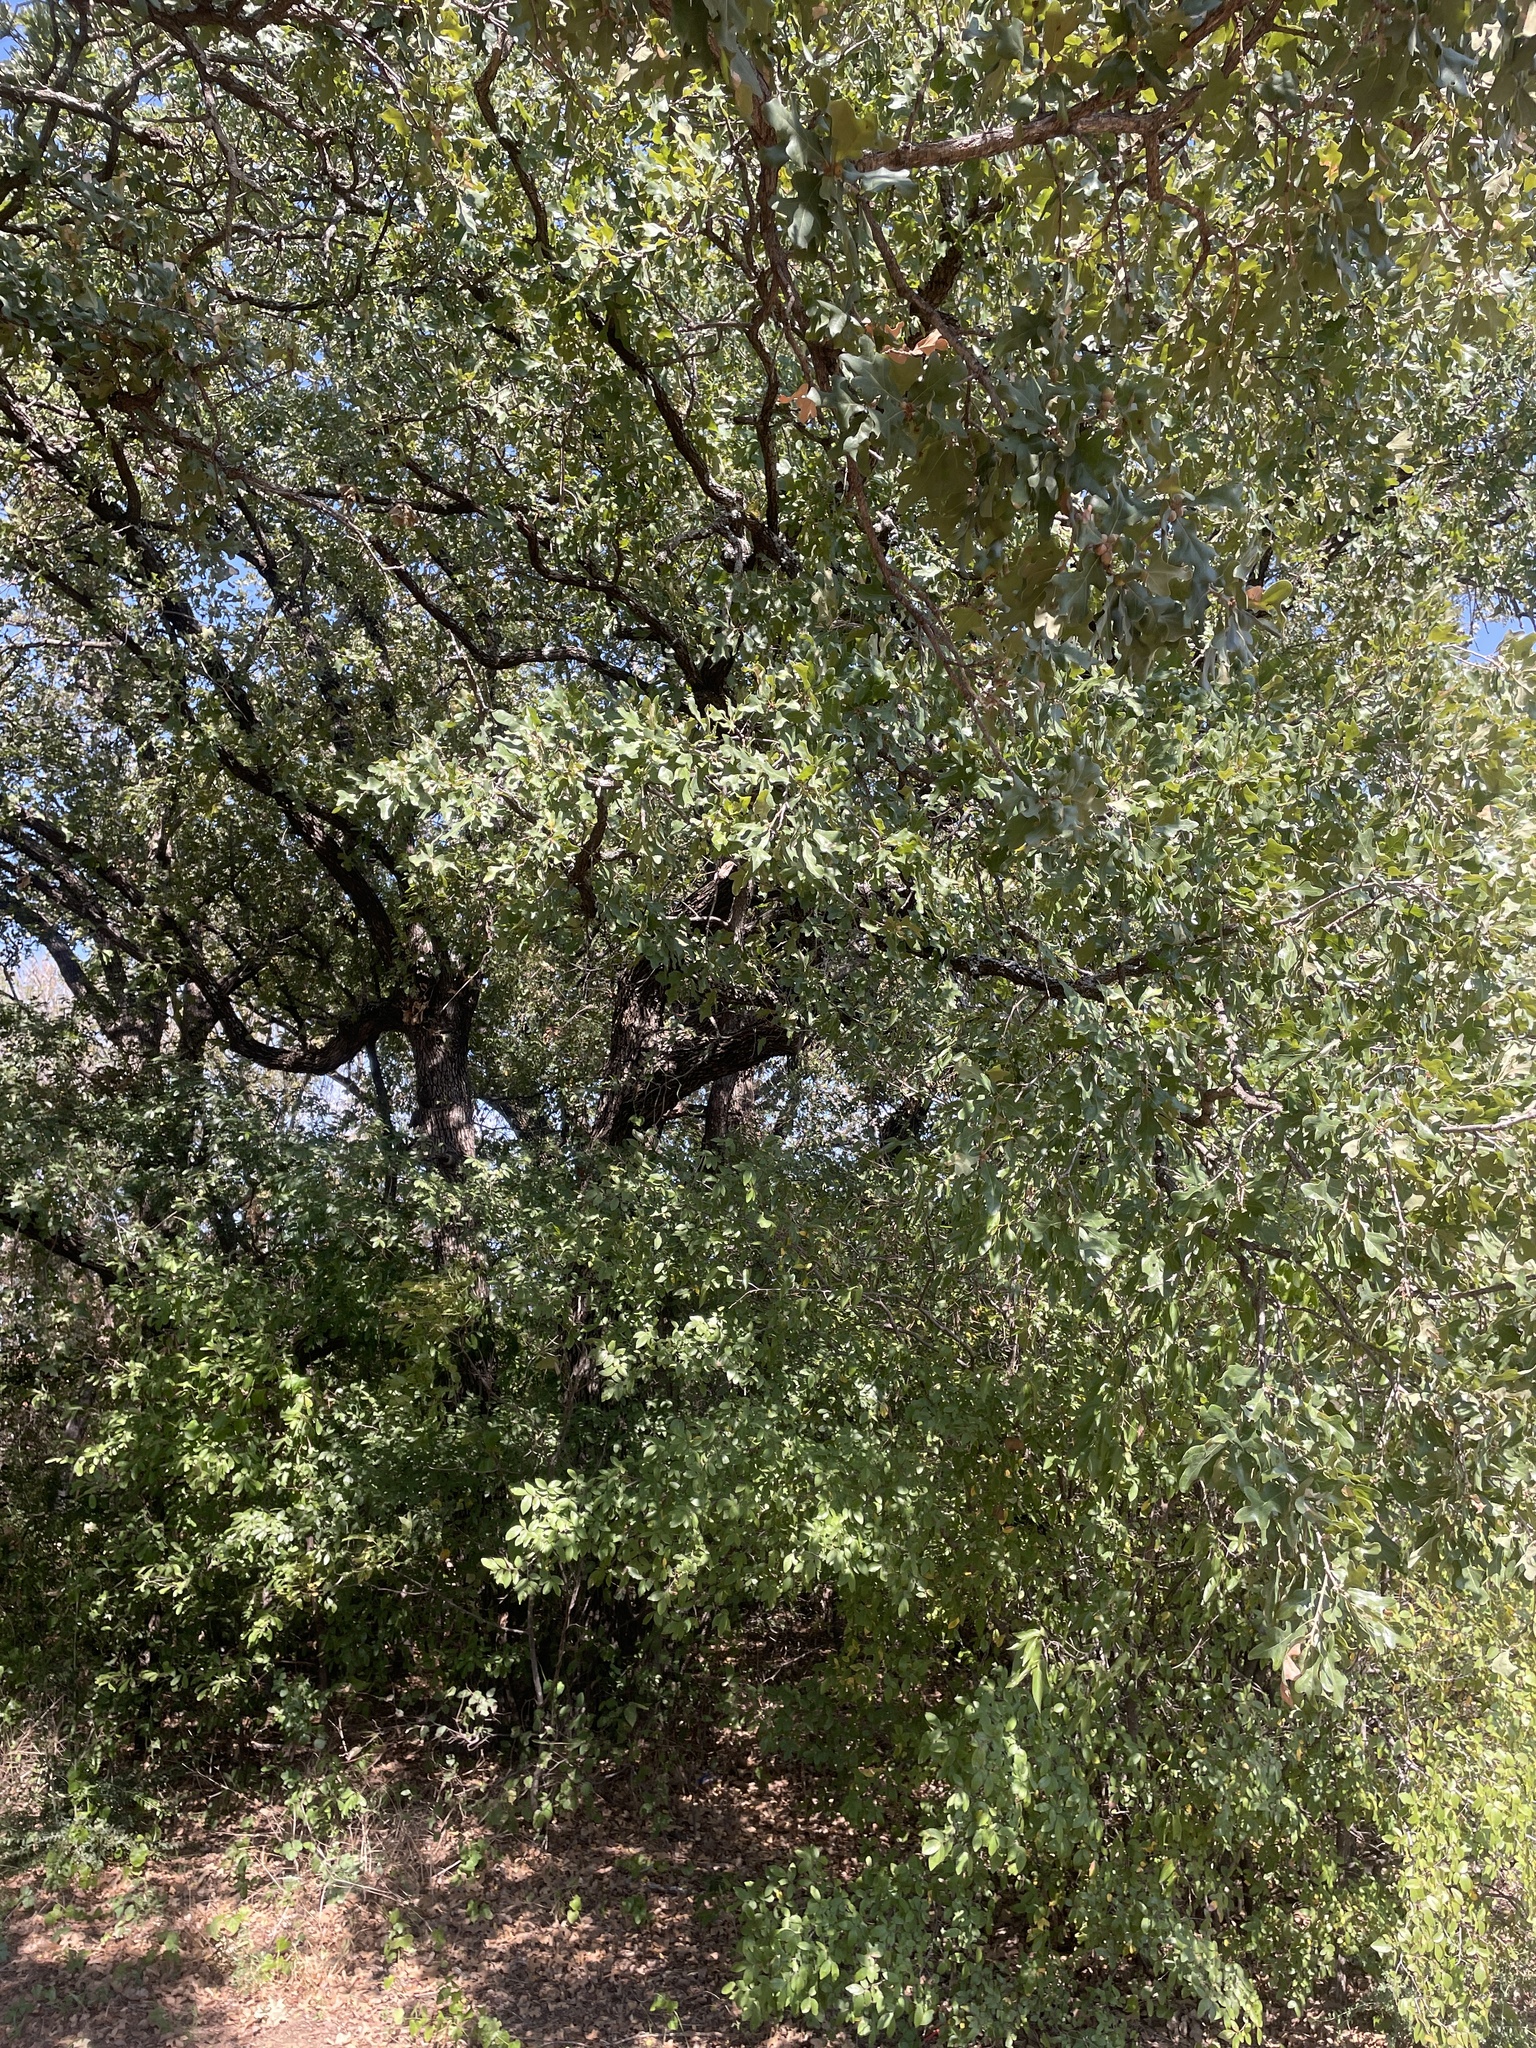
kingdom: Plantae
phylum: Tracheophyta
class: Magnoliopsida
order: Fagales
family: Fagaceae
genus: Quercus
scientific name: Quercus stellata
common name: Post oak
